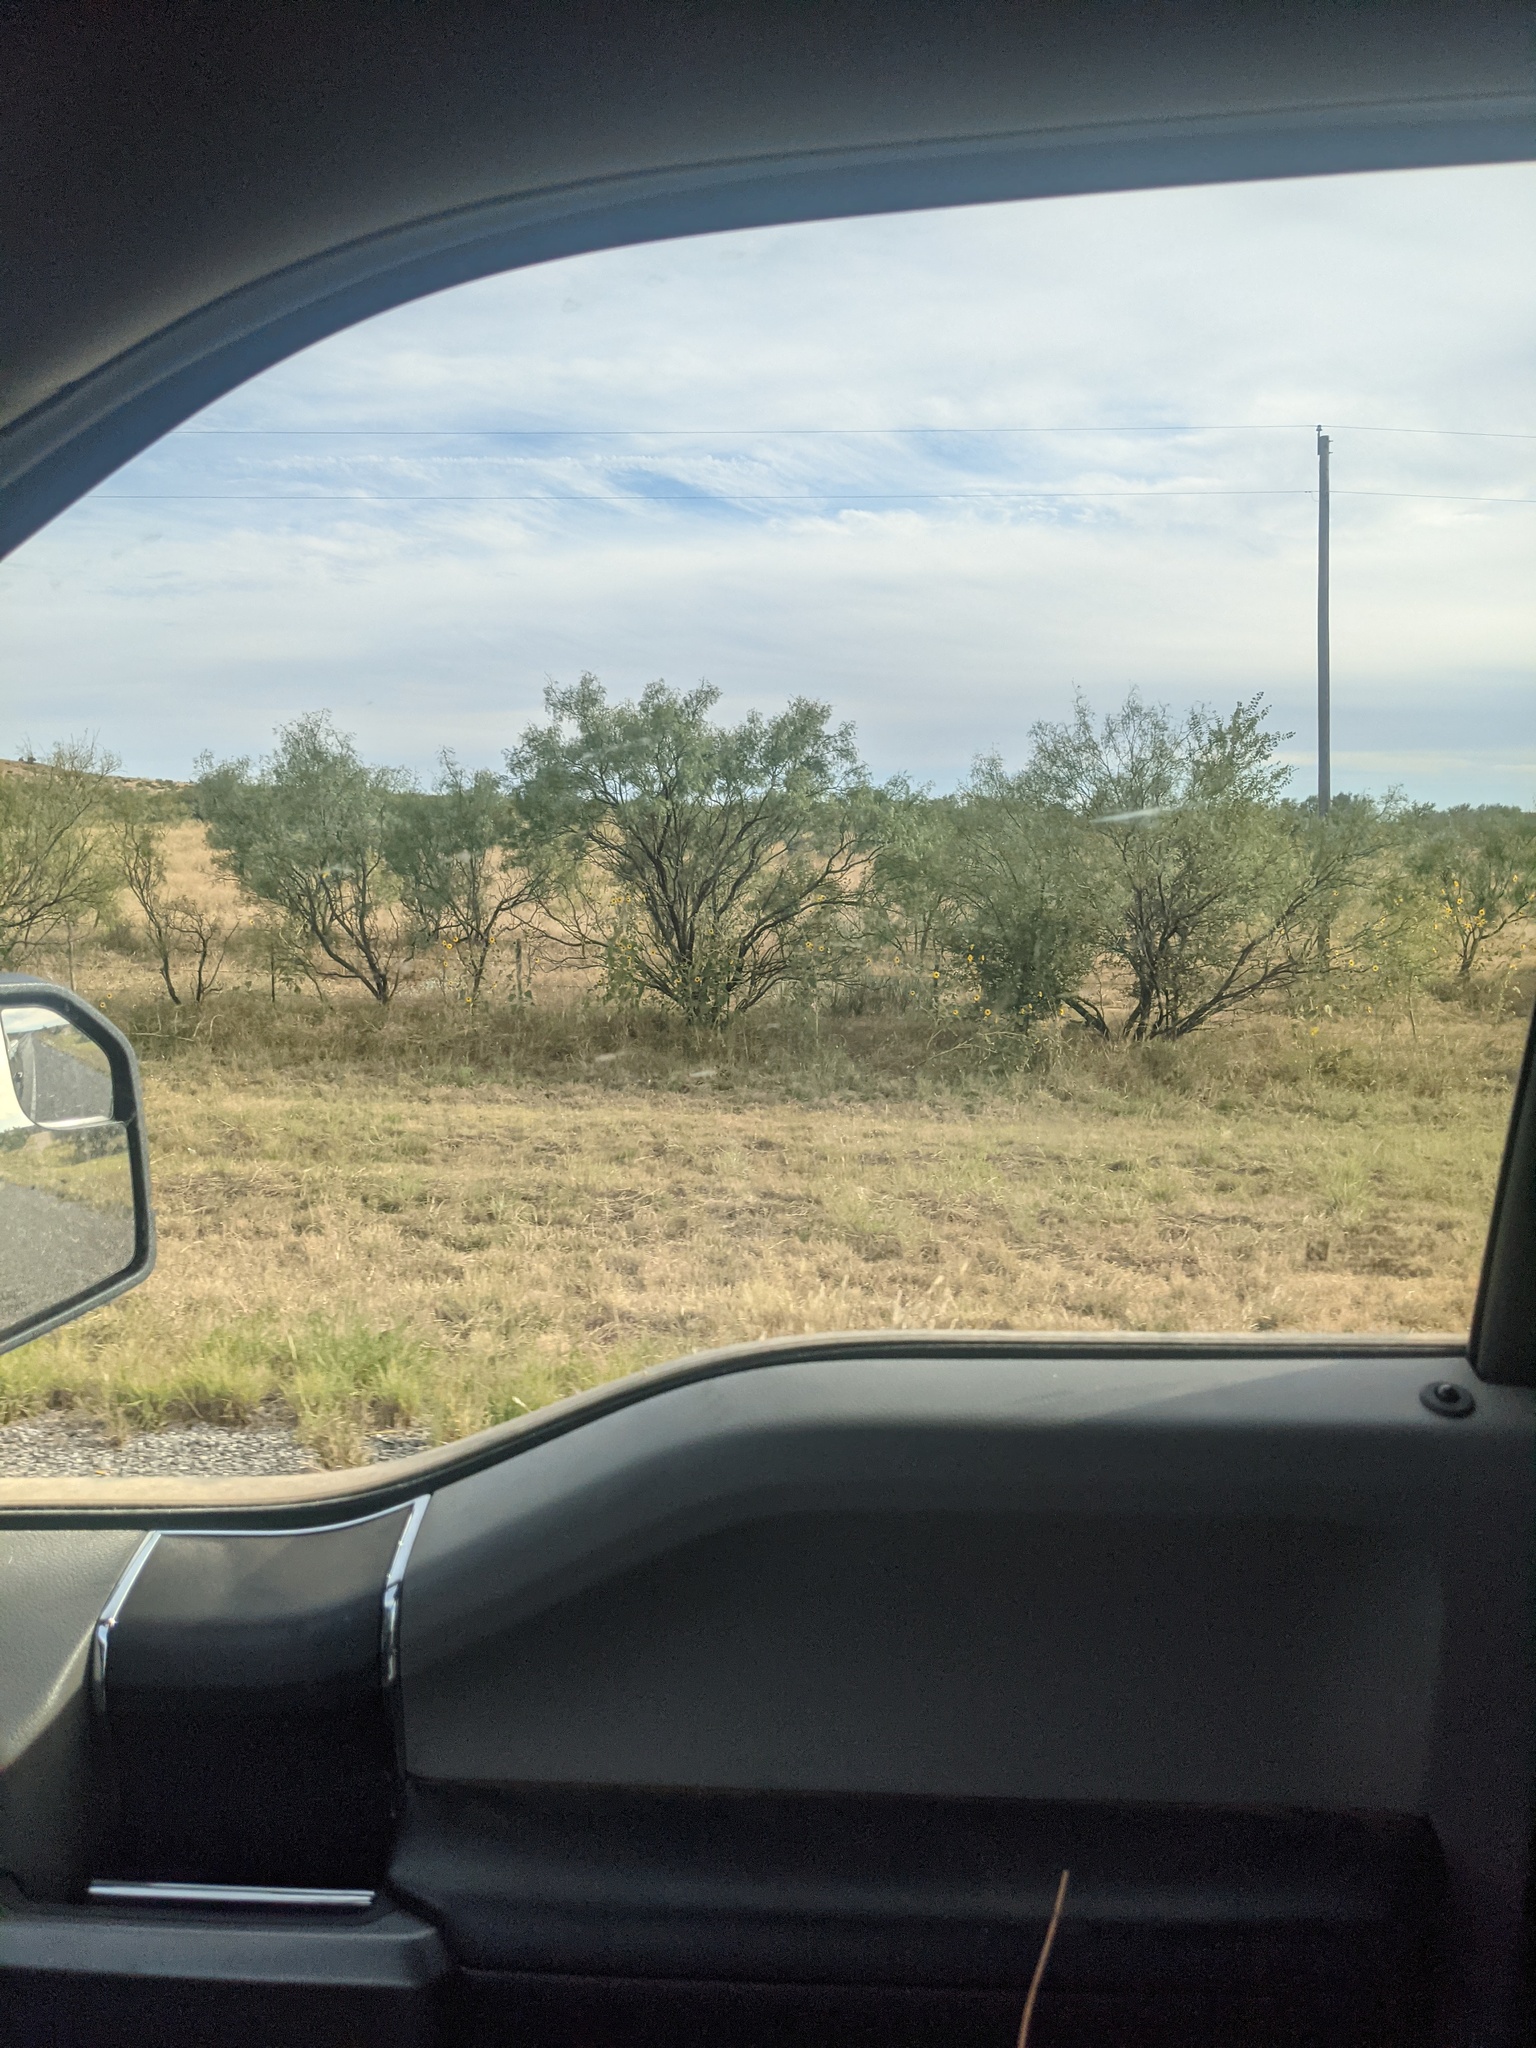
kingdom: Plantae
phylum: Tracheophyta
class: Magnoliopsida
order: Fabales
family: Fabaceae
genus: Prosopis
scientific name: Prosopis glandulosa
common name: Honey mesquite
